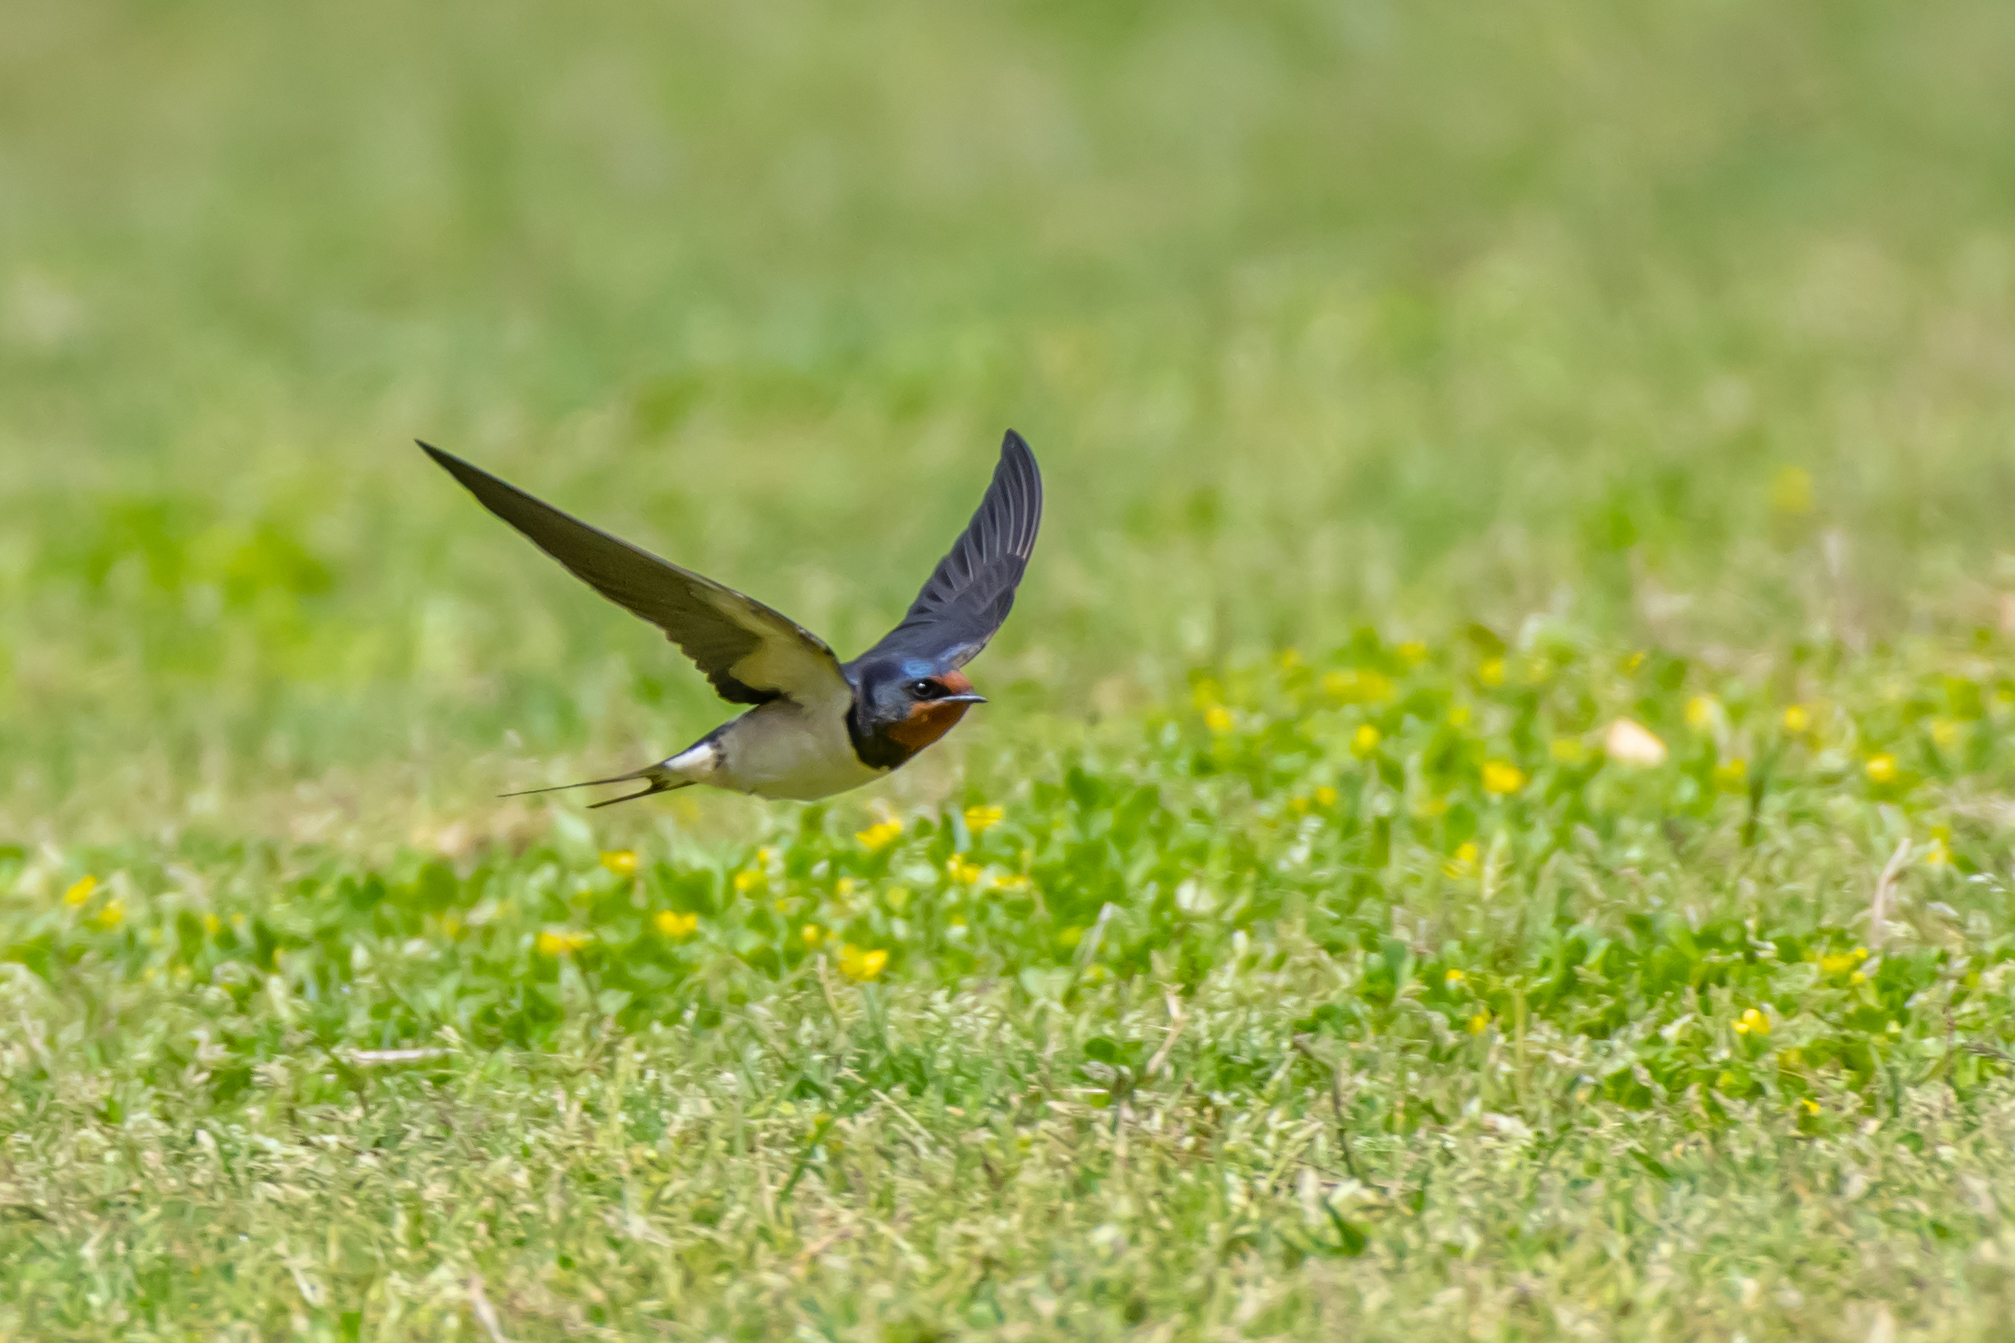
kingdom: Animalia
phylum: Chordata
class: Aves
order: Passeriformes
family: Hirundinidae
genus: Hirundo
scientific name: Hirundo rustica
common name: Barn swallow
